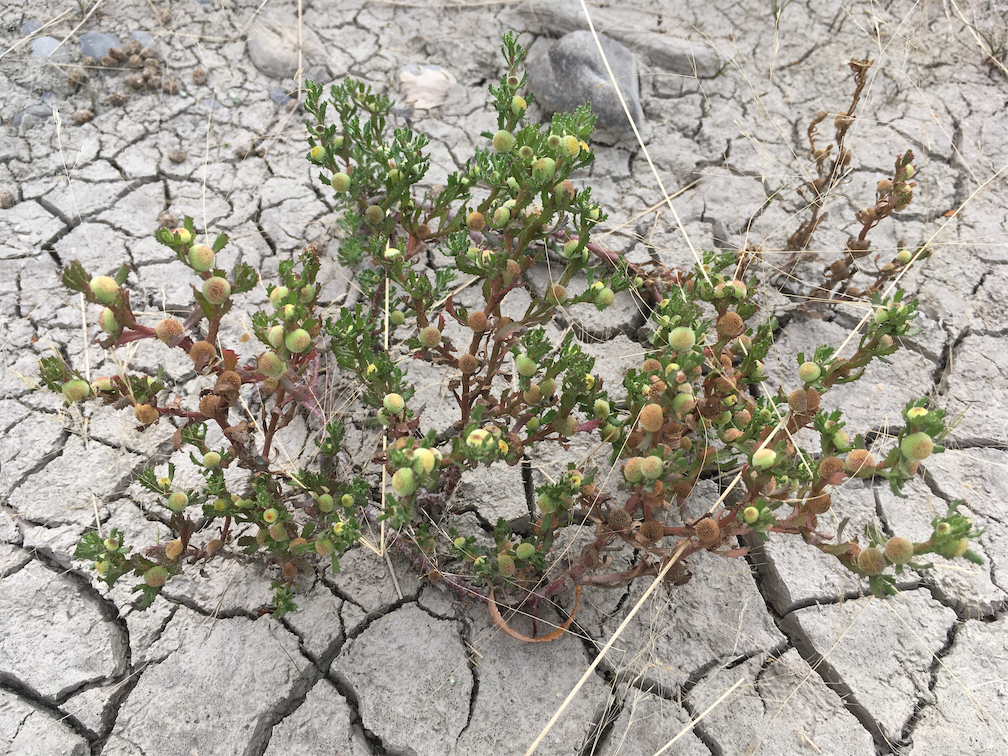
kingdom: Plantae
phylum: Tracheophyta
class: Magnoliopsida
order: Asterales
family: Asteraceae
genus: Centipeda
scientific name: Centipeda cunninghamii
